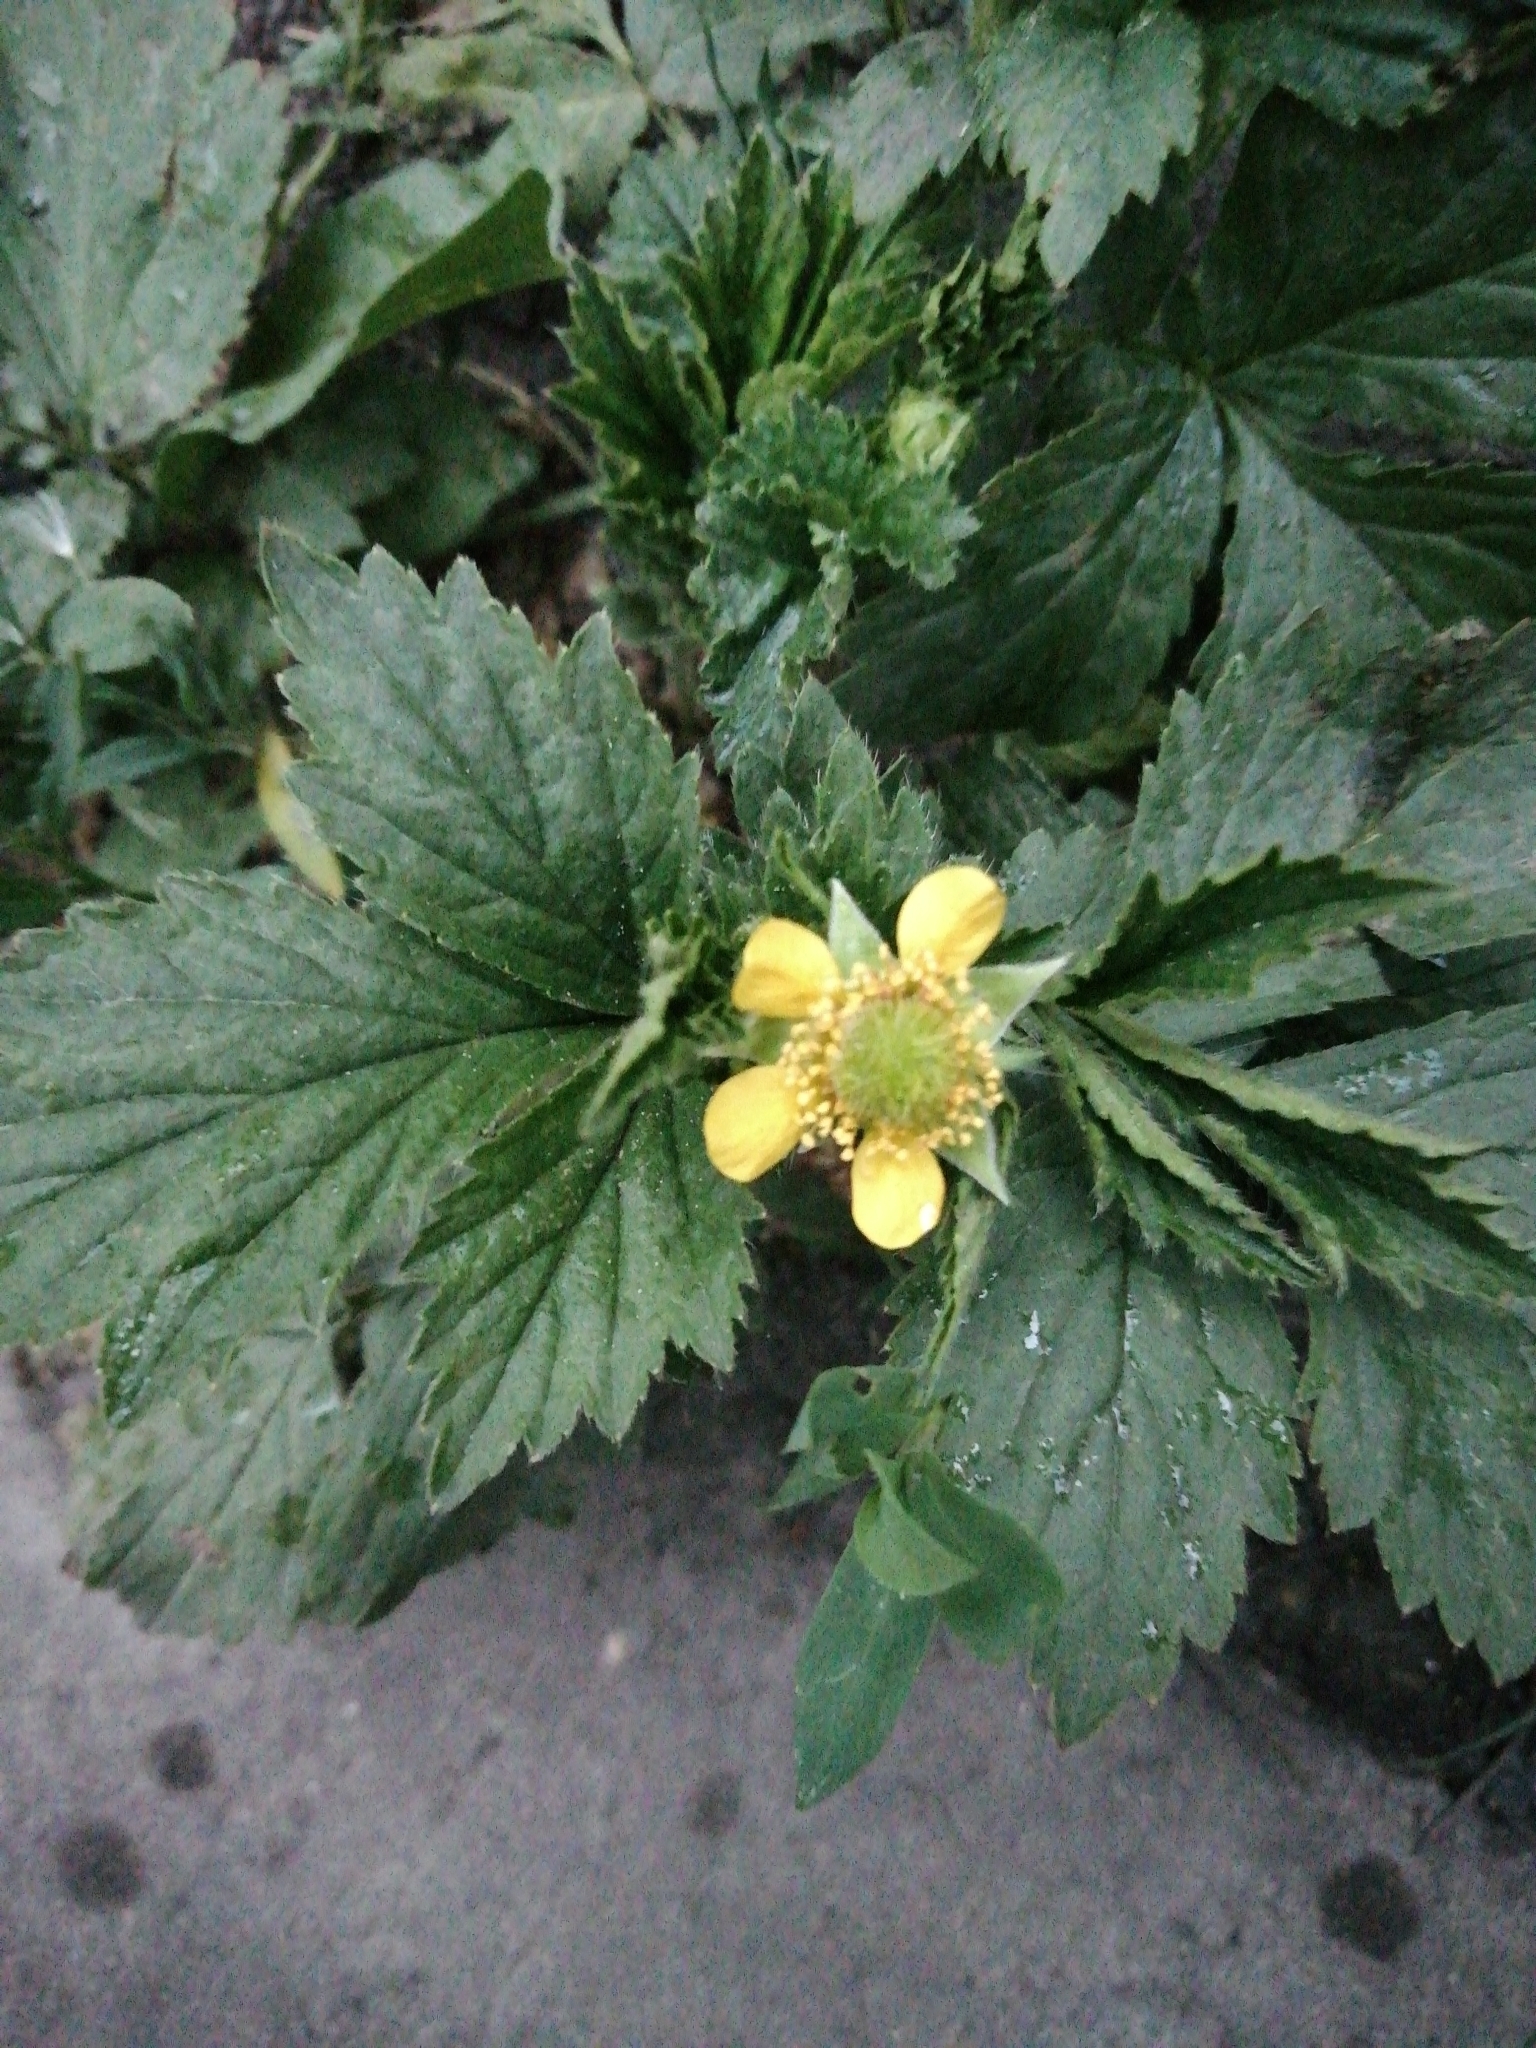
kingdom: Plantae
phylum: Tracheophyta
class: Magnoliopsida
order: Rosales
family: Rosaceae
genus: Geum
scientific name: Geum aleppicum
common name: Yellow avens
